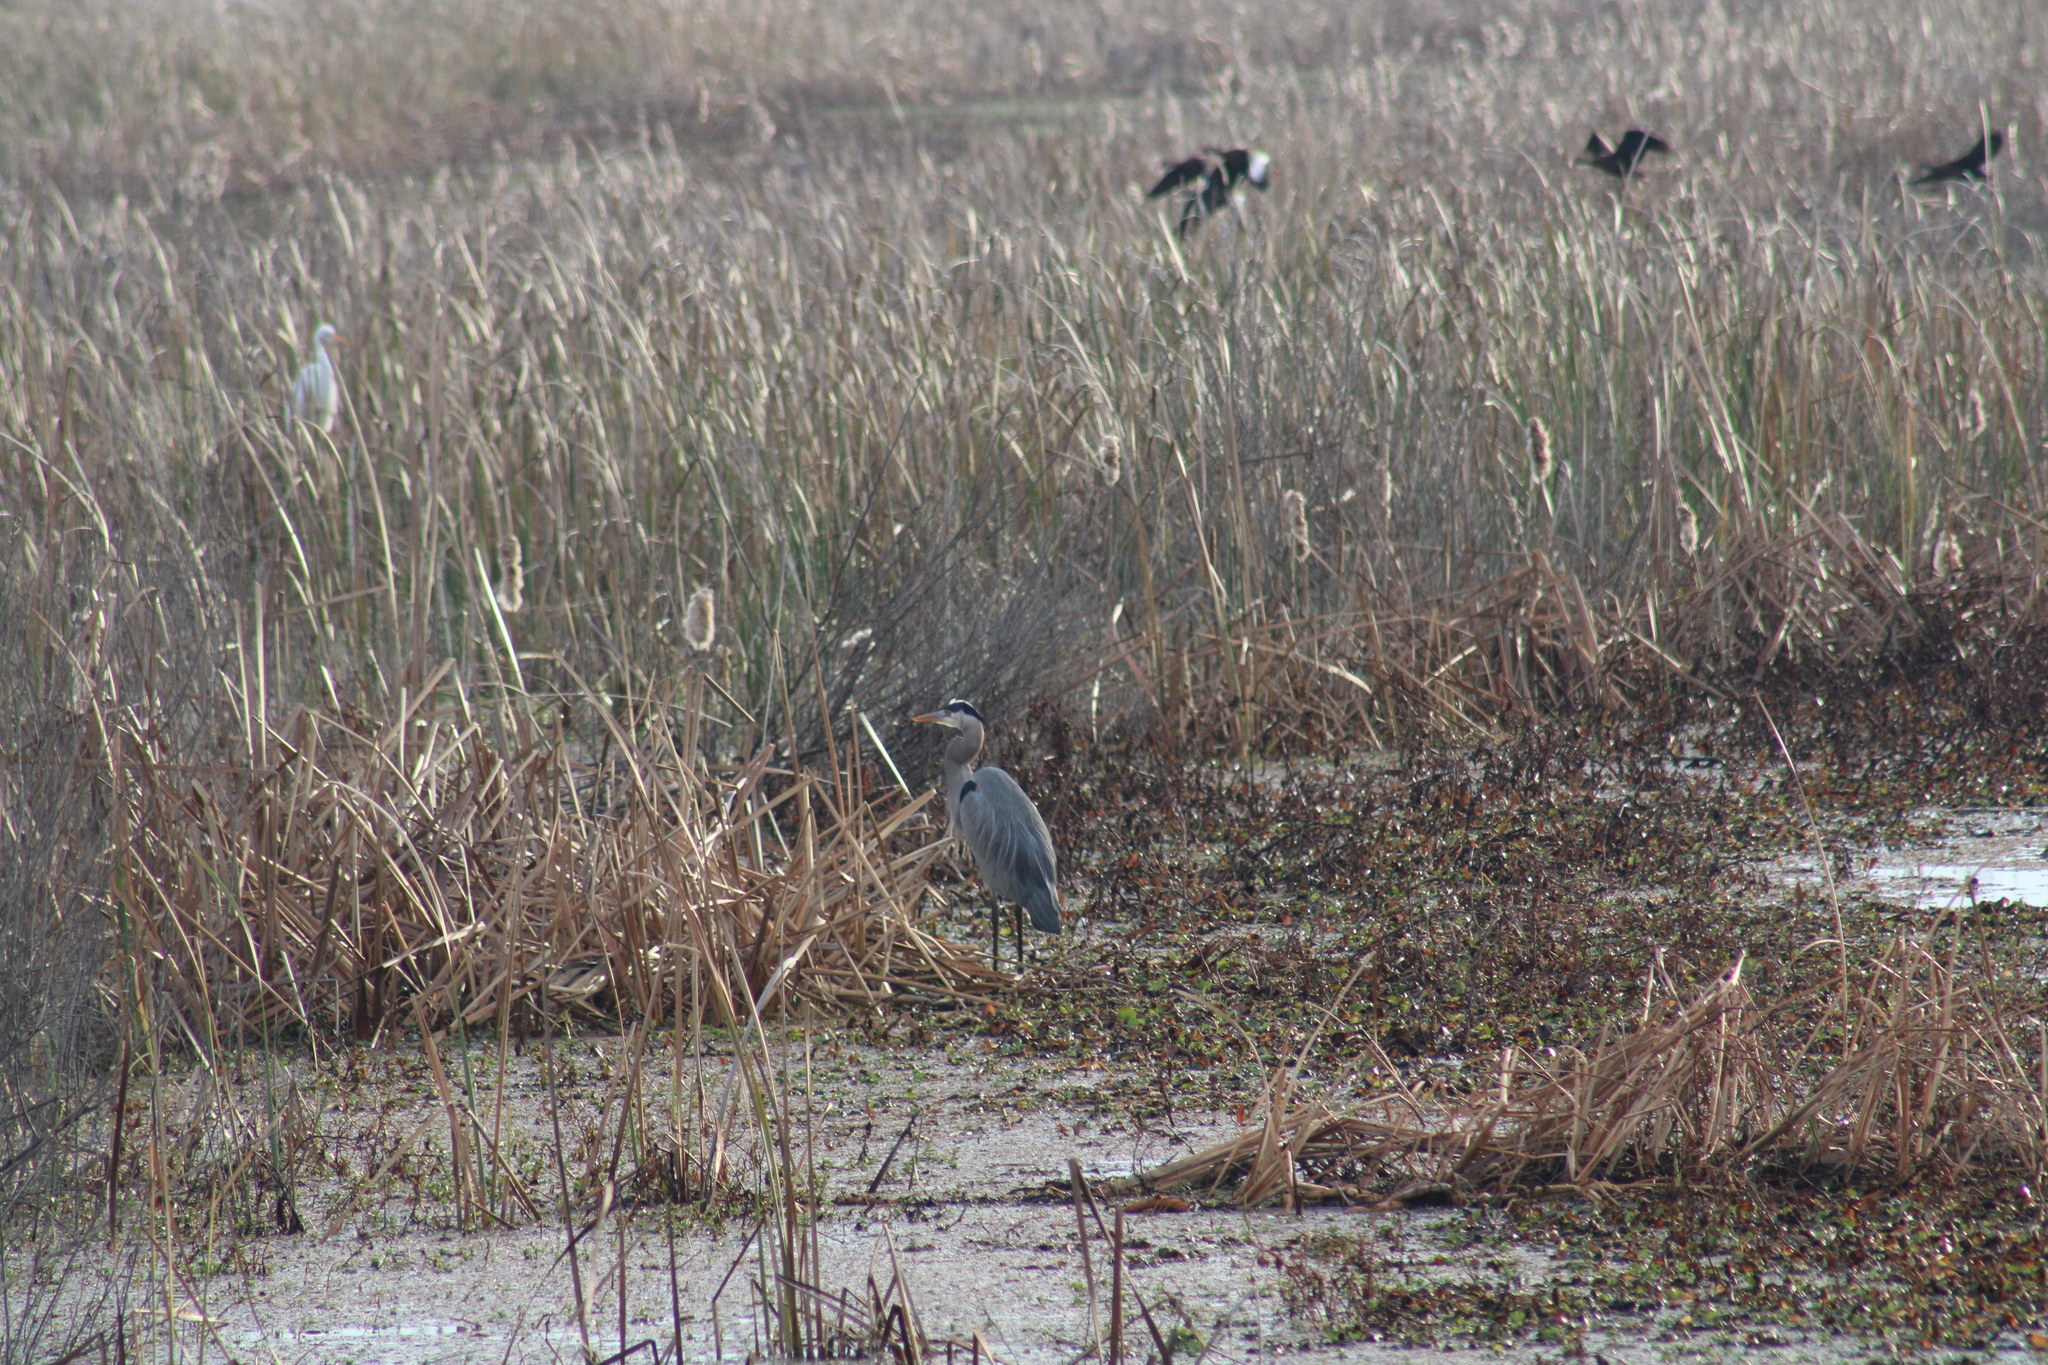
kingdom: Animalia
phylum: Chordata
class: Aves
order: Pelecaniformes
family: Ardeidae
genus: Ardea
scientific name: Ardea herodias
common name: Great blue heron
